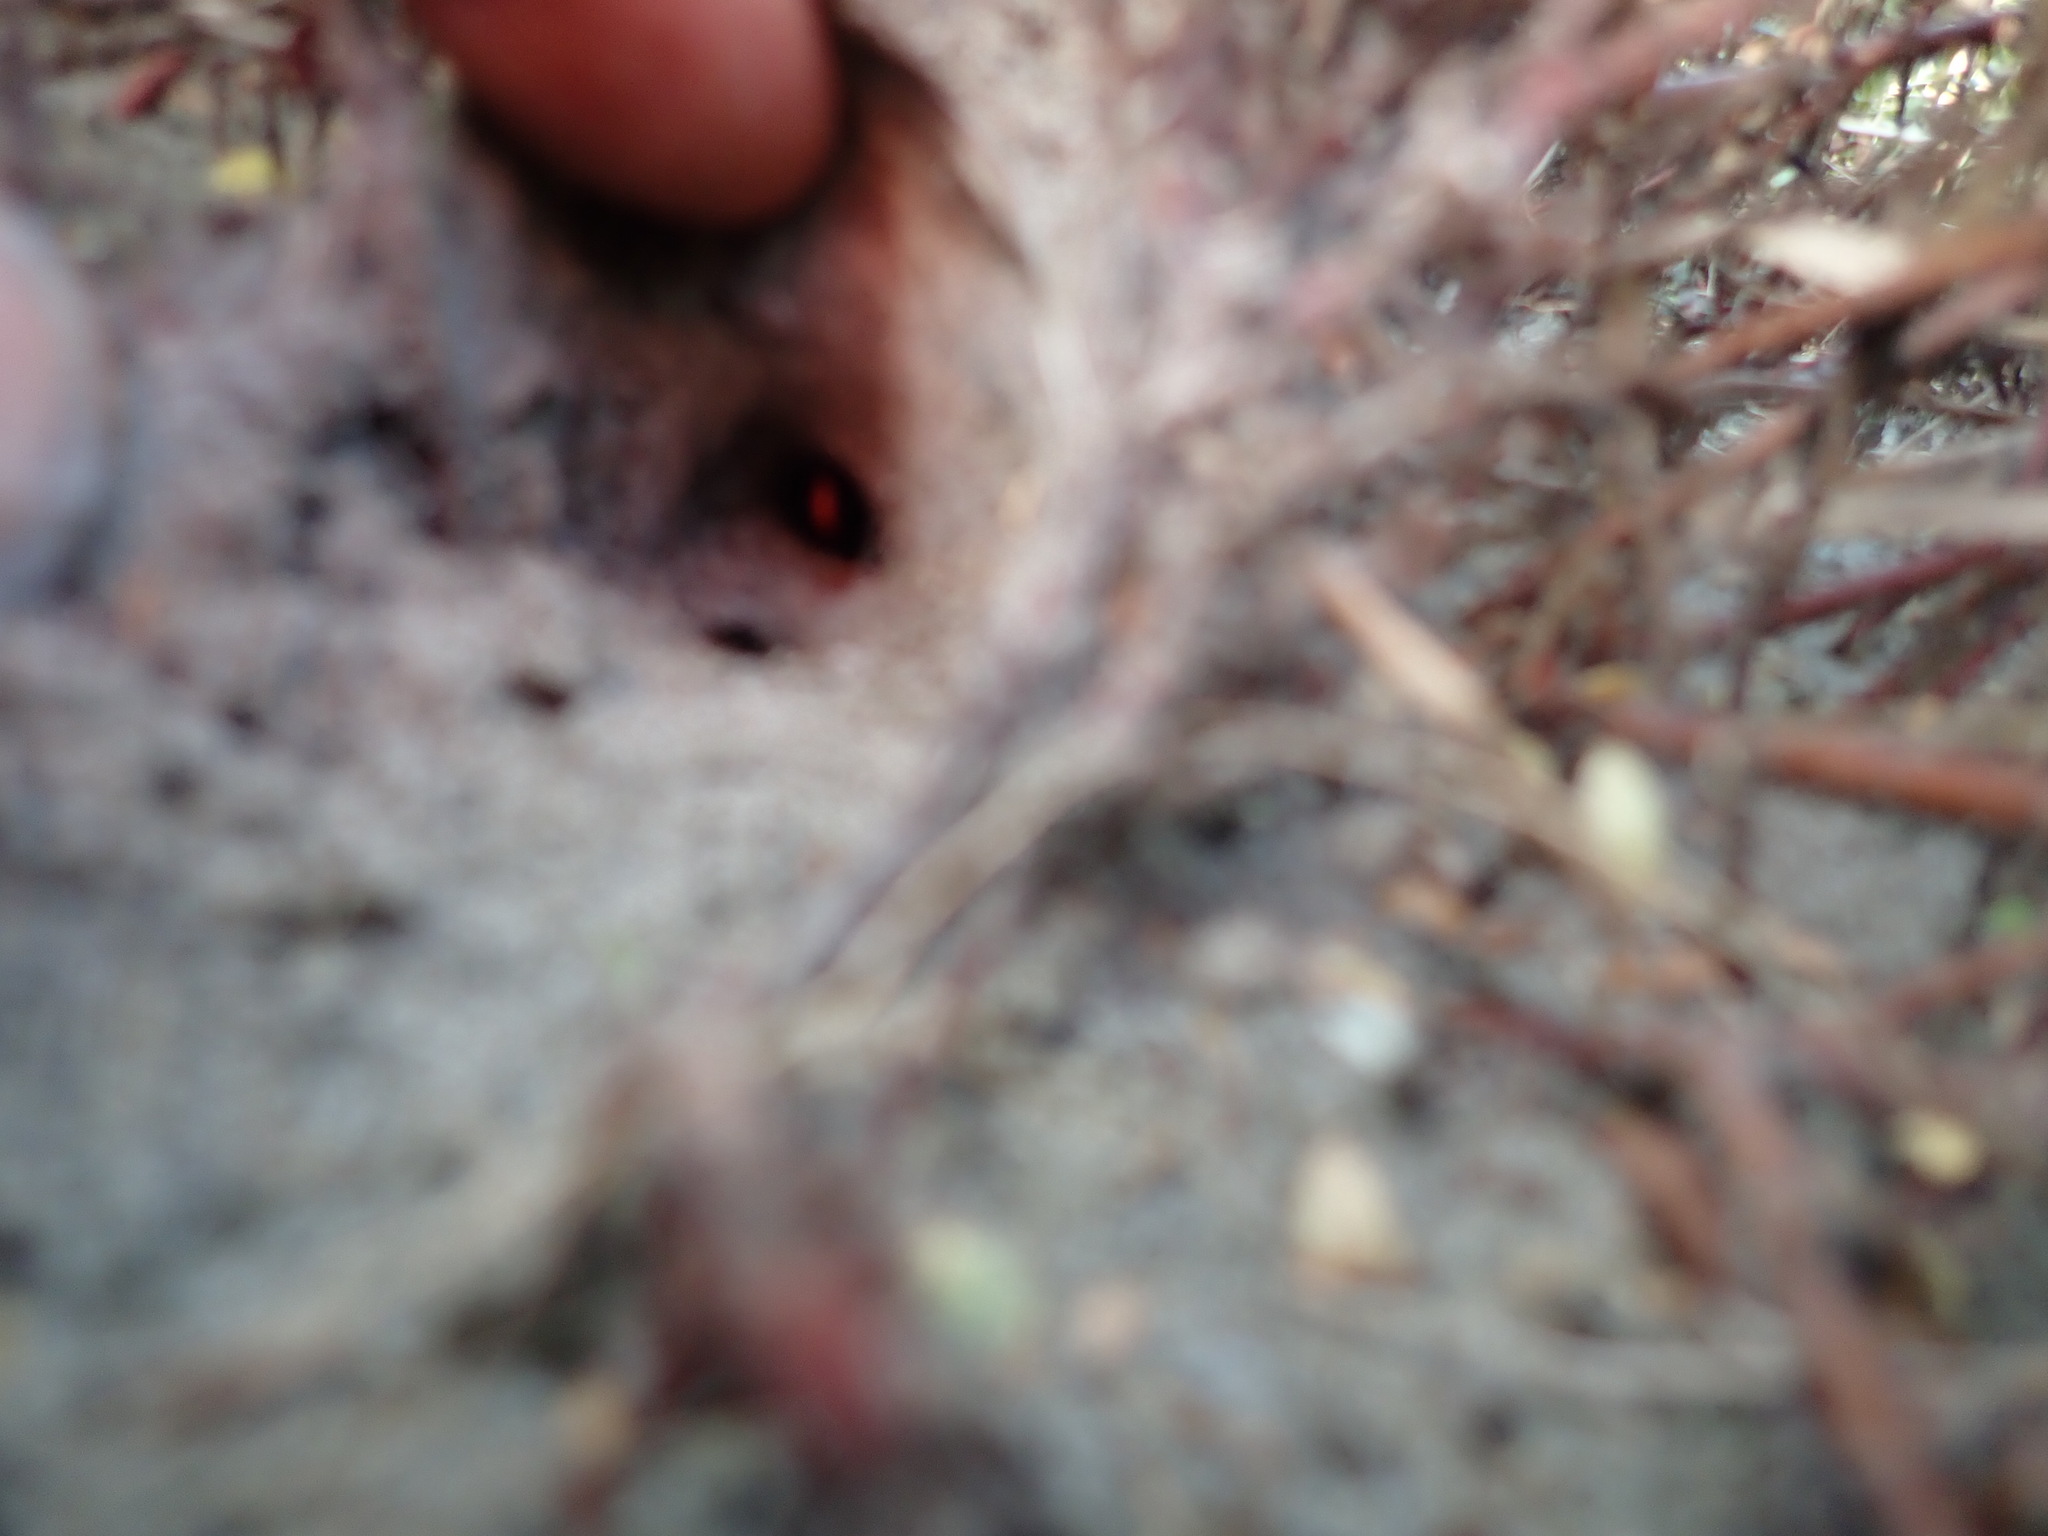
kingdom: Animalia
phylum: Arthropoda
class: Arachnida
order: Araneae
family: Theridiidae
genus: Latrodectus
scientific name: Latrodectus katipo
